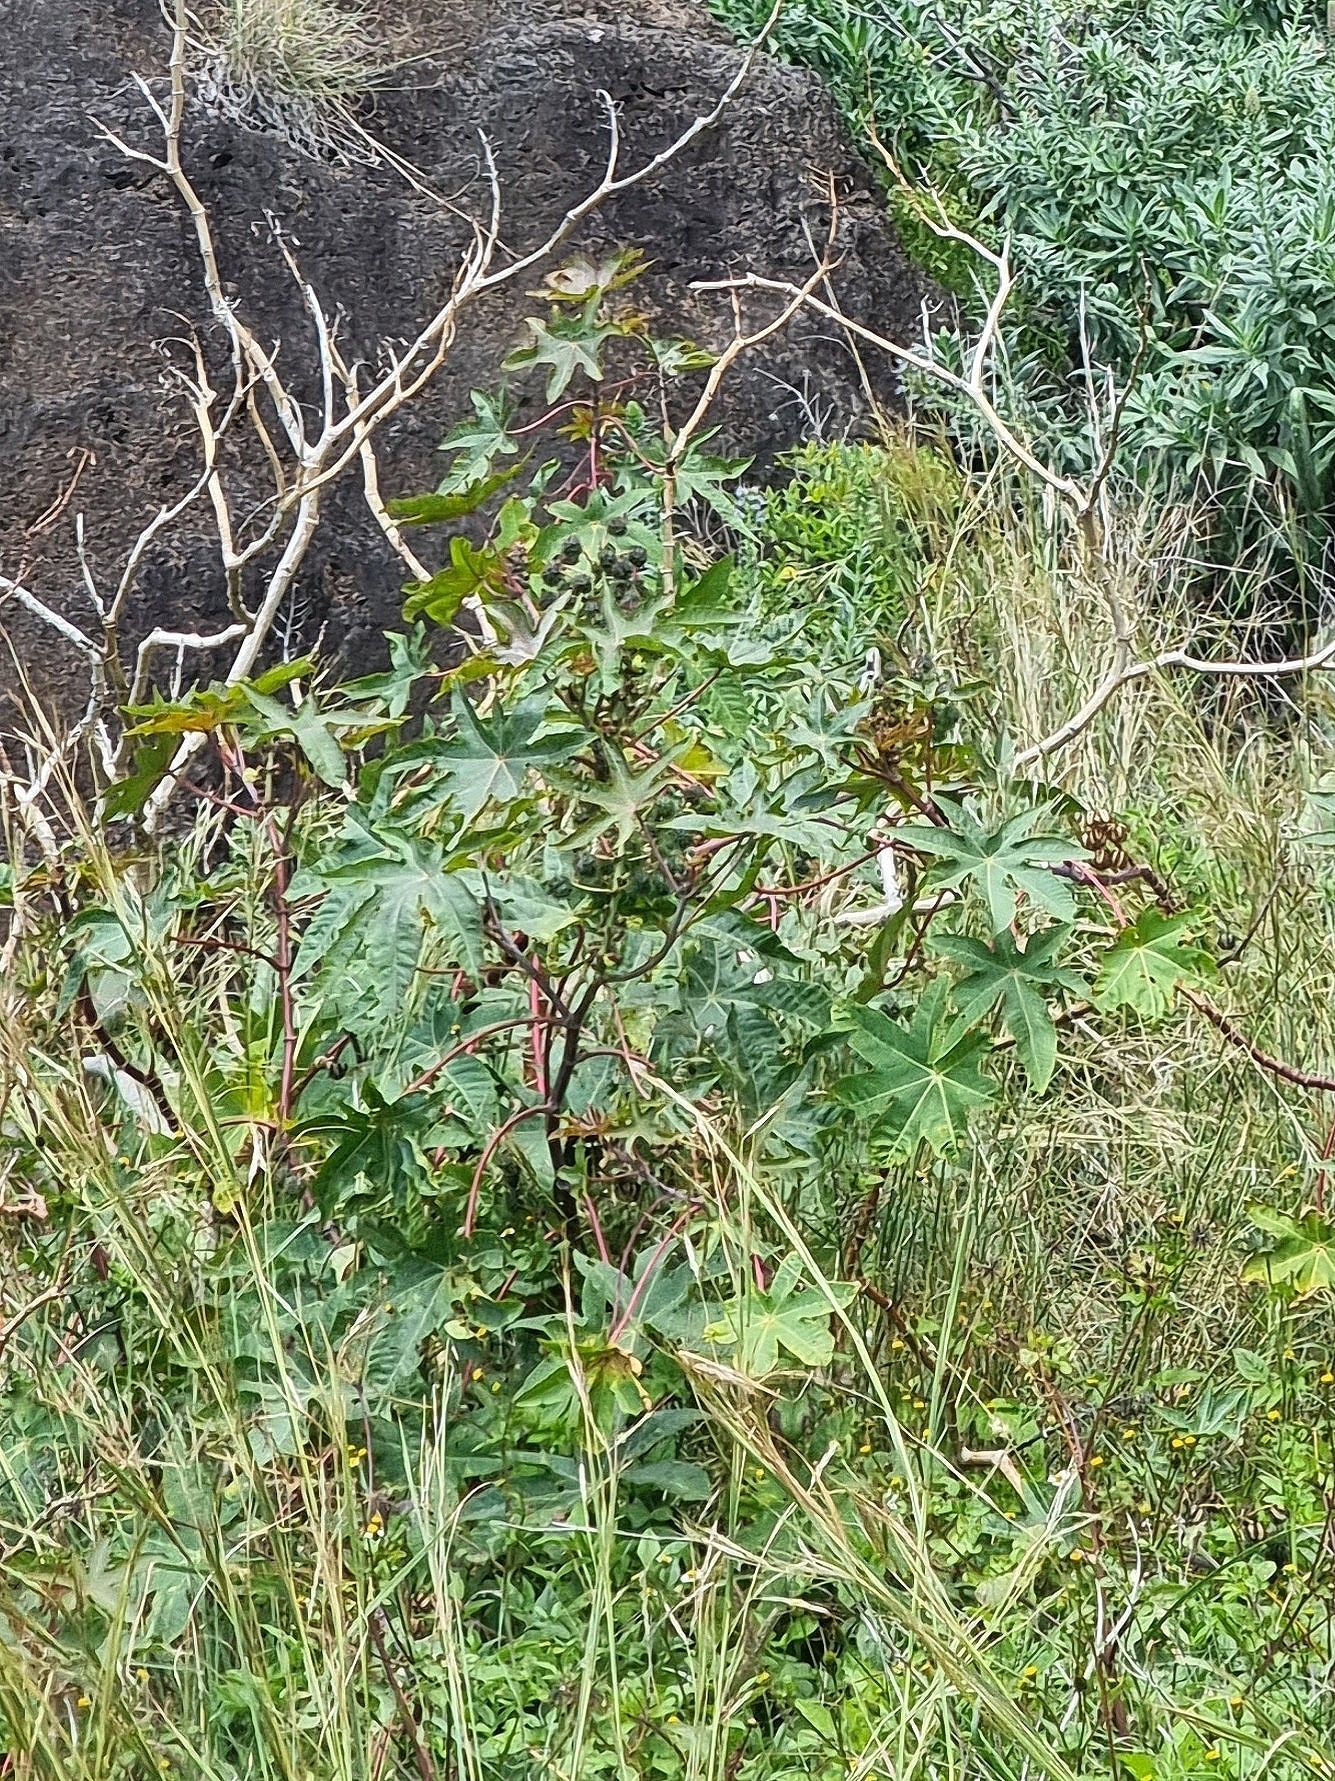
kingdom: Plantae
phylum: Tracheophyta
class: Magnoliopsida
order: Malpighiales
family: Euphorbiaceae
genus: Ricinus
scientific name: Ricinus communis
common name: Castor-oil-plant
